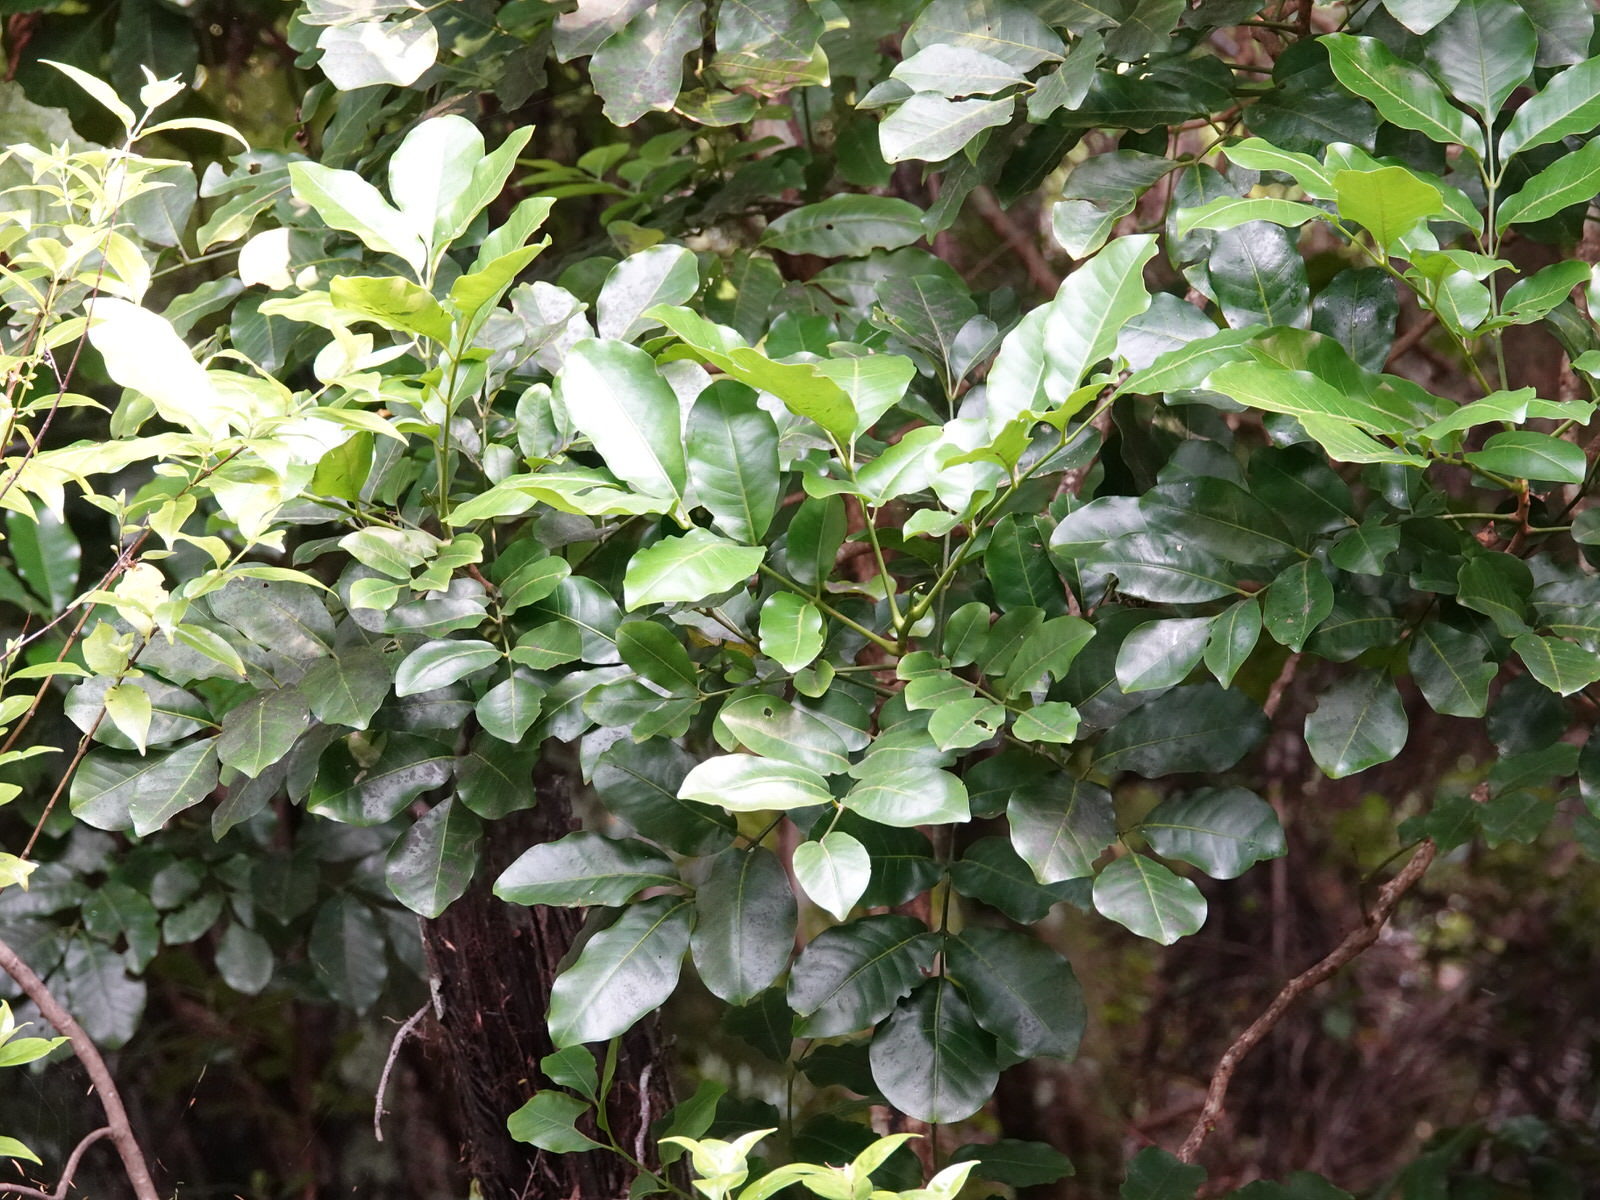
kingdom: Plantae
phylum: Tracheophyta
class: Magnoliopsida
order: Sapindales
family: Meliaceae
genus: Didymocheton
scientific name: Didymocheton spectabilis
